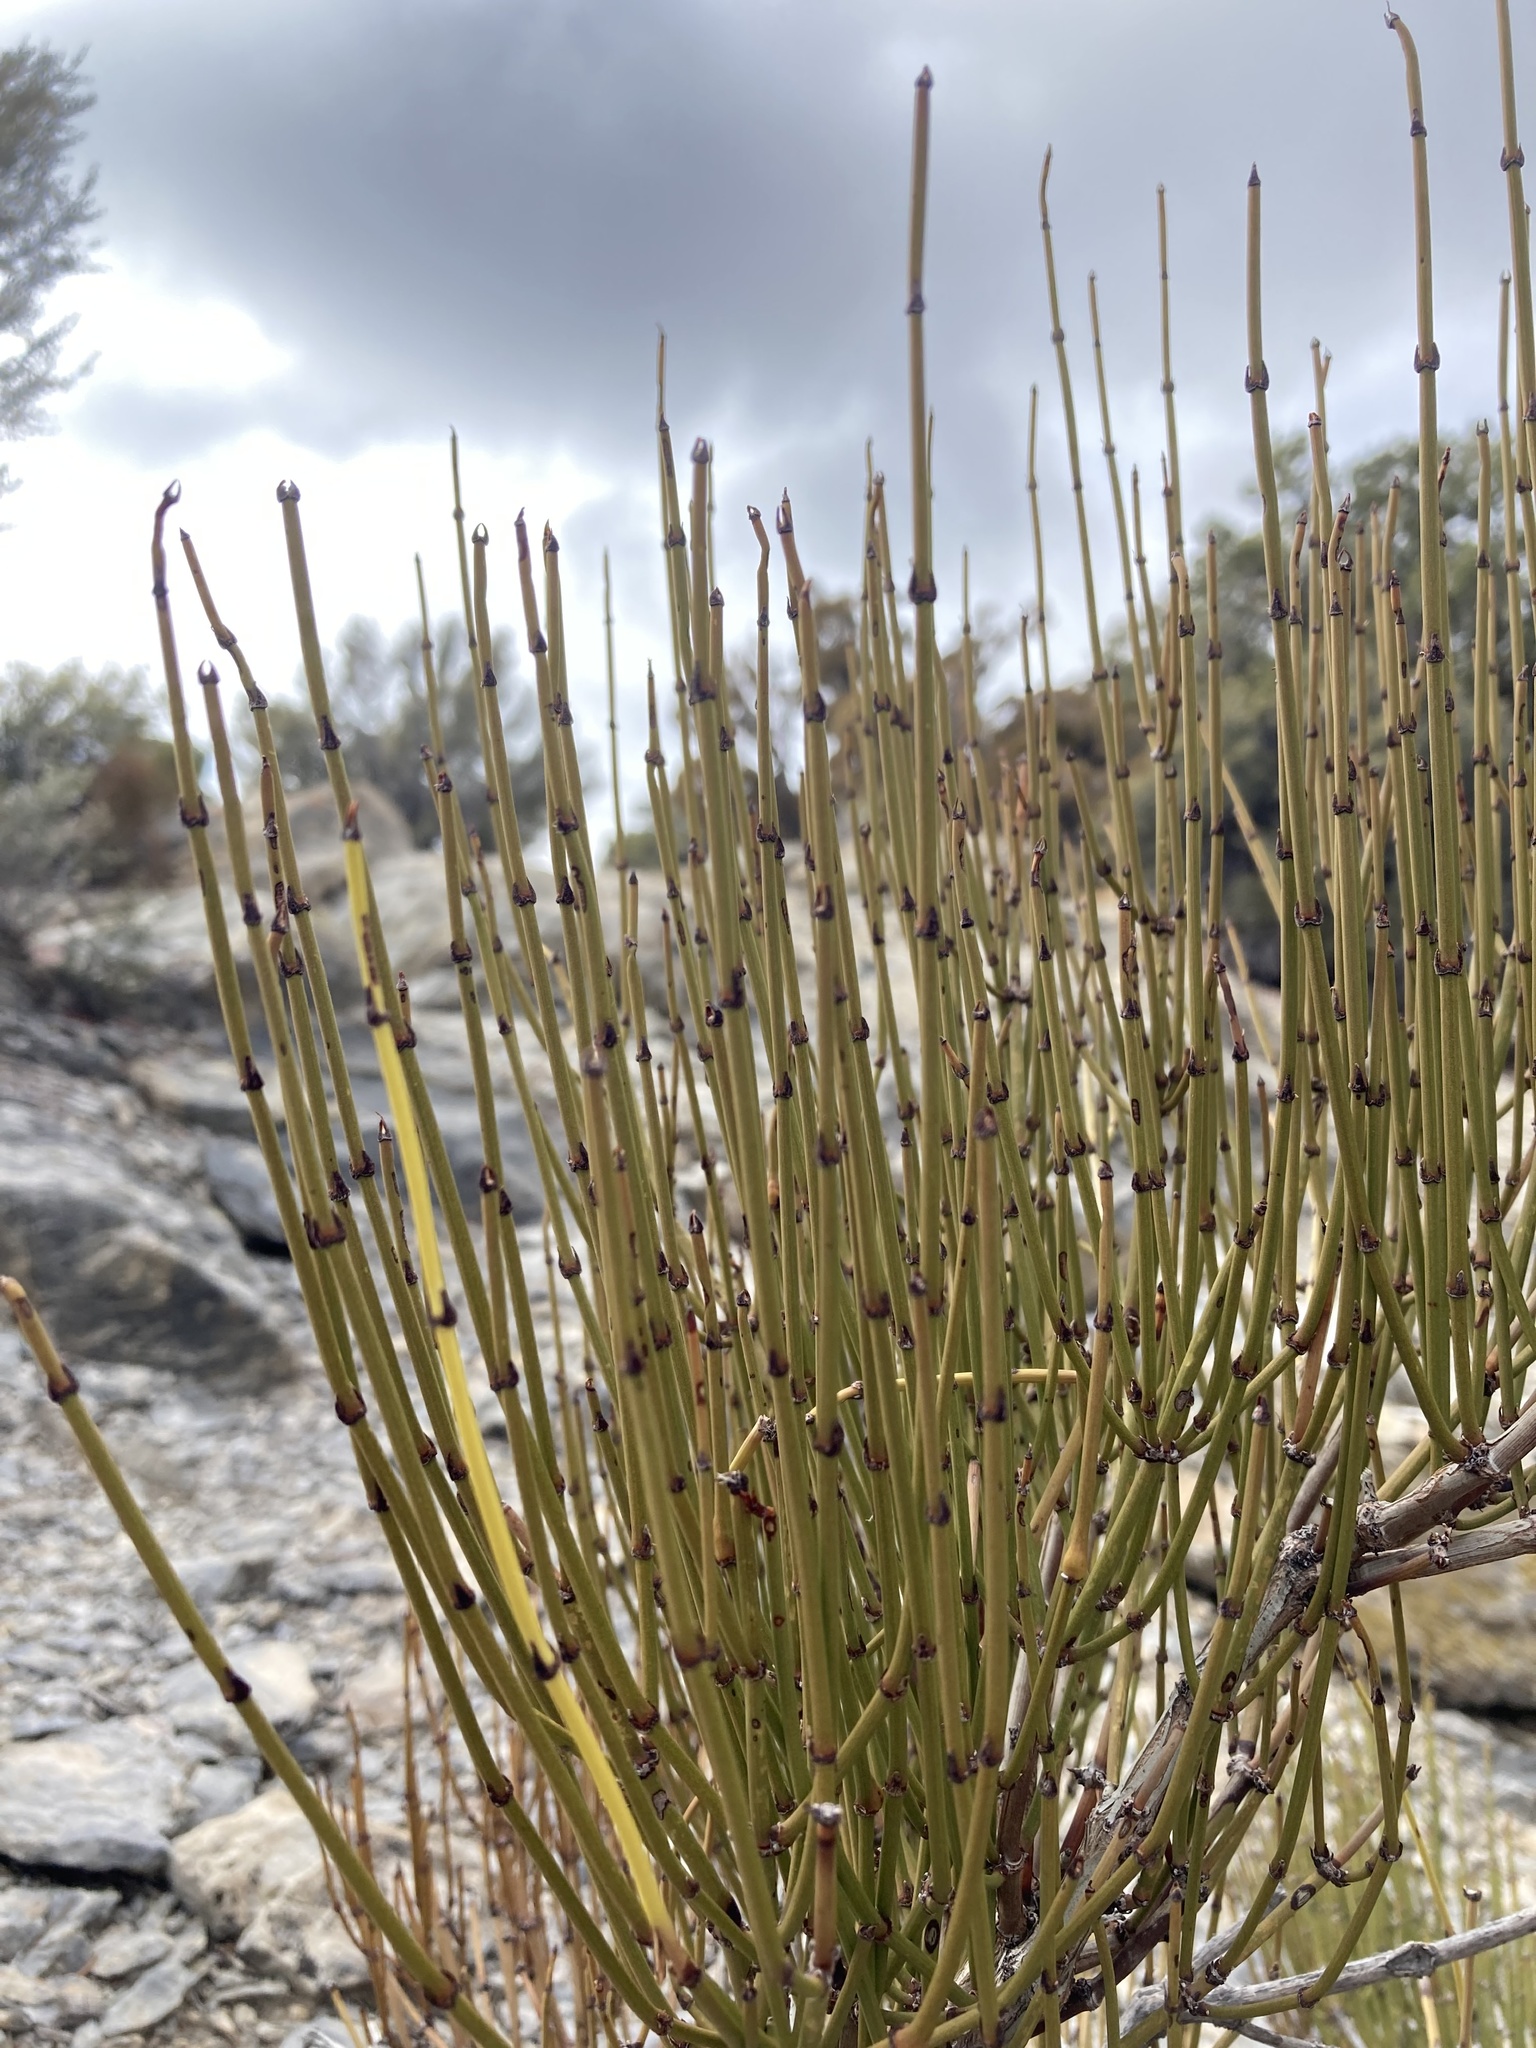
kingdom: Plantae
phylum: Tracheophyta
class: Gnetopsida
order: Ephedrales
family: Ephedraceae
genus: Ephedra
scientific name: Ephedra viridis
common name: Green ephedra
